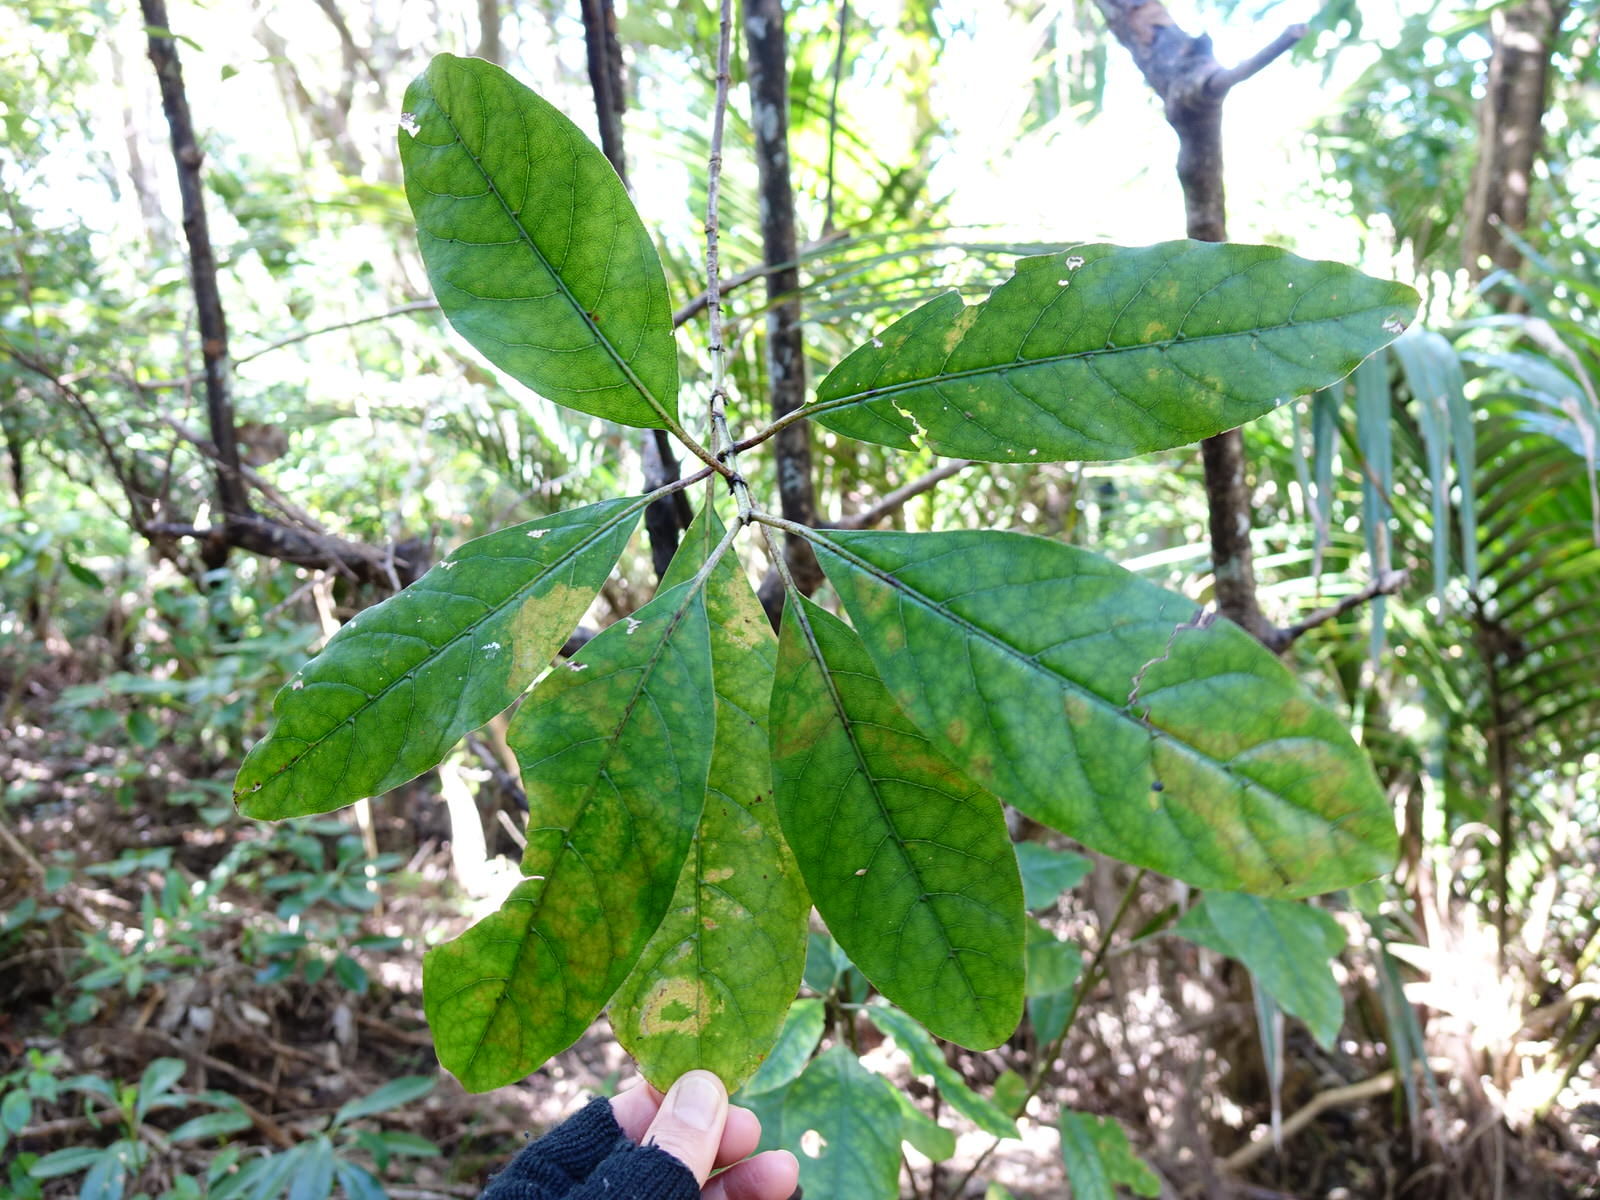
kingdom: Plantae
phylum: Tracheophyta
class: Magnoliopsida
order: Gentianales
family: Rubiaceae
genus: Coprosma
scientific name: Coprosma autumnalis
